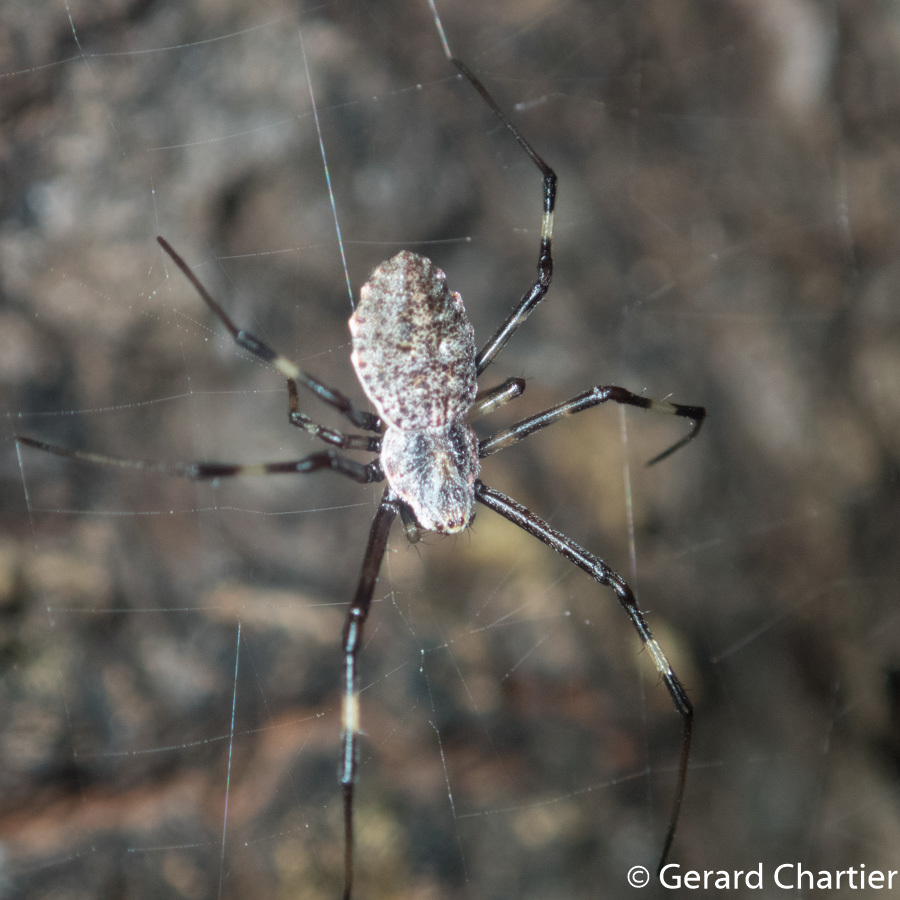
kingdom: Animalia
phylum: Arthropoda
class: Arachnida
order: Araneae
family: Araneidae
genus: Herennia
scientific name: Herennia multipuncta
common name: Spotted coin spider
